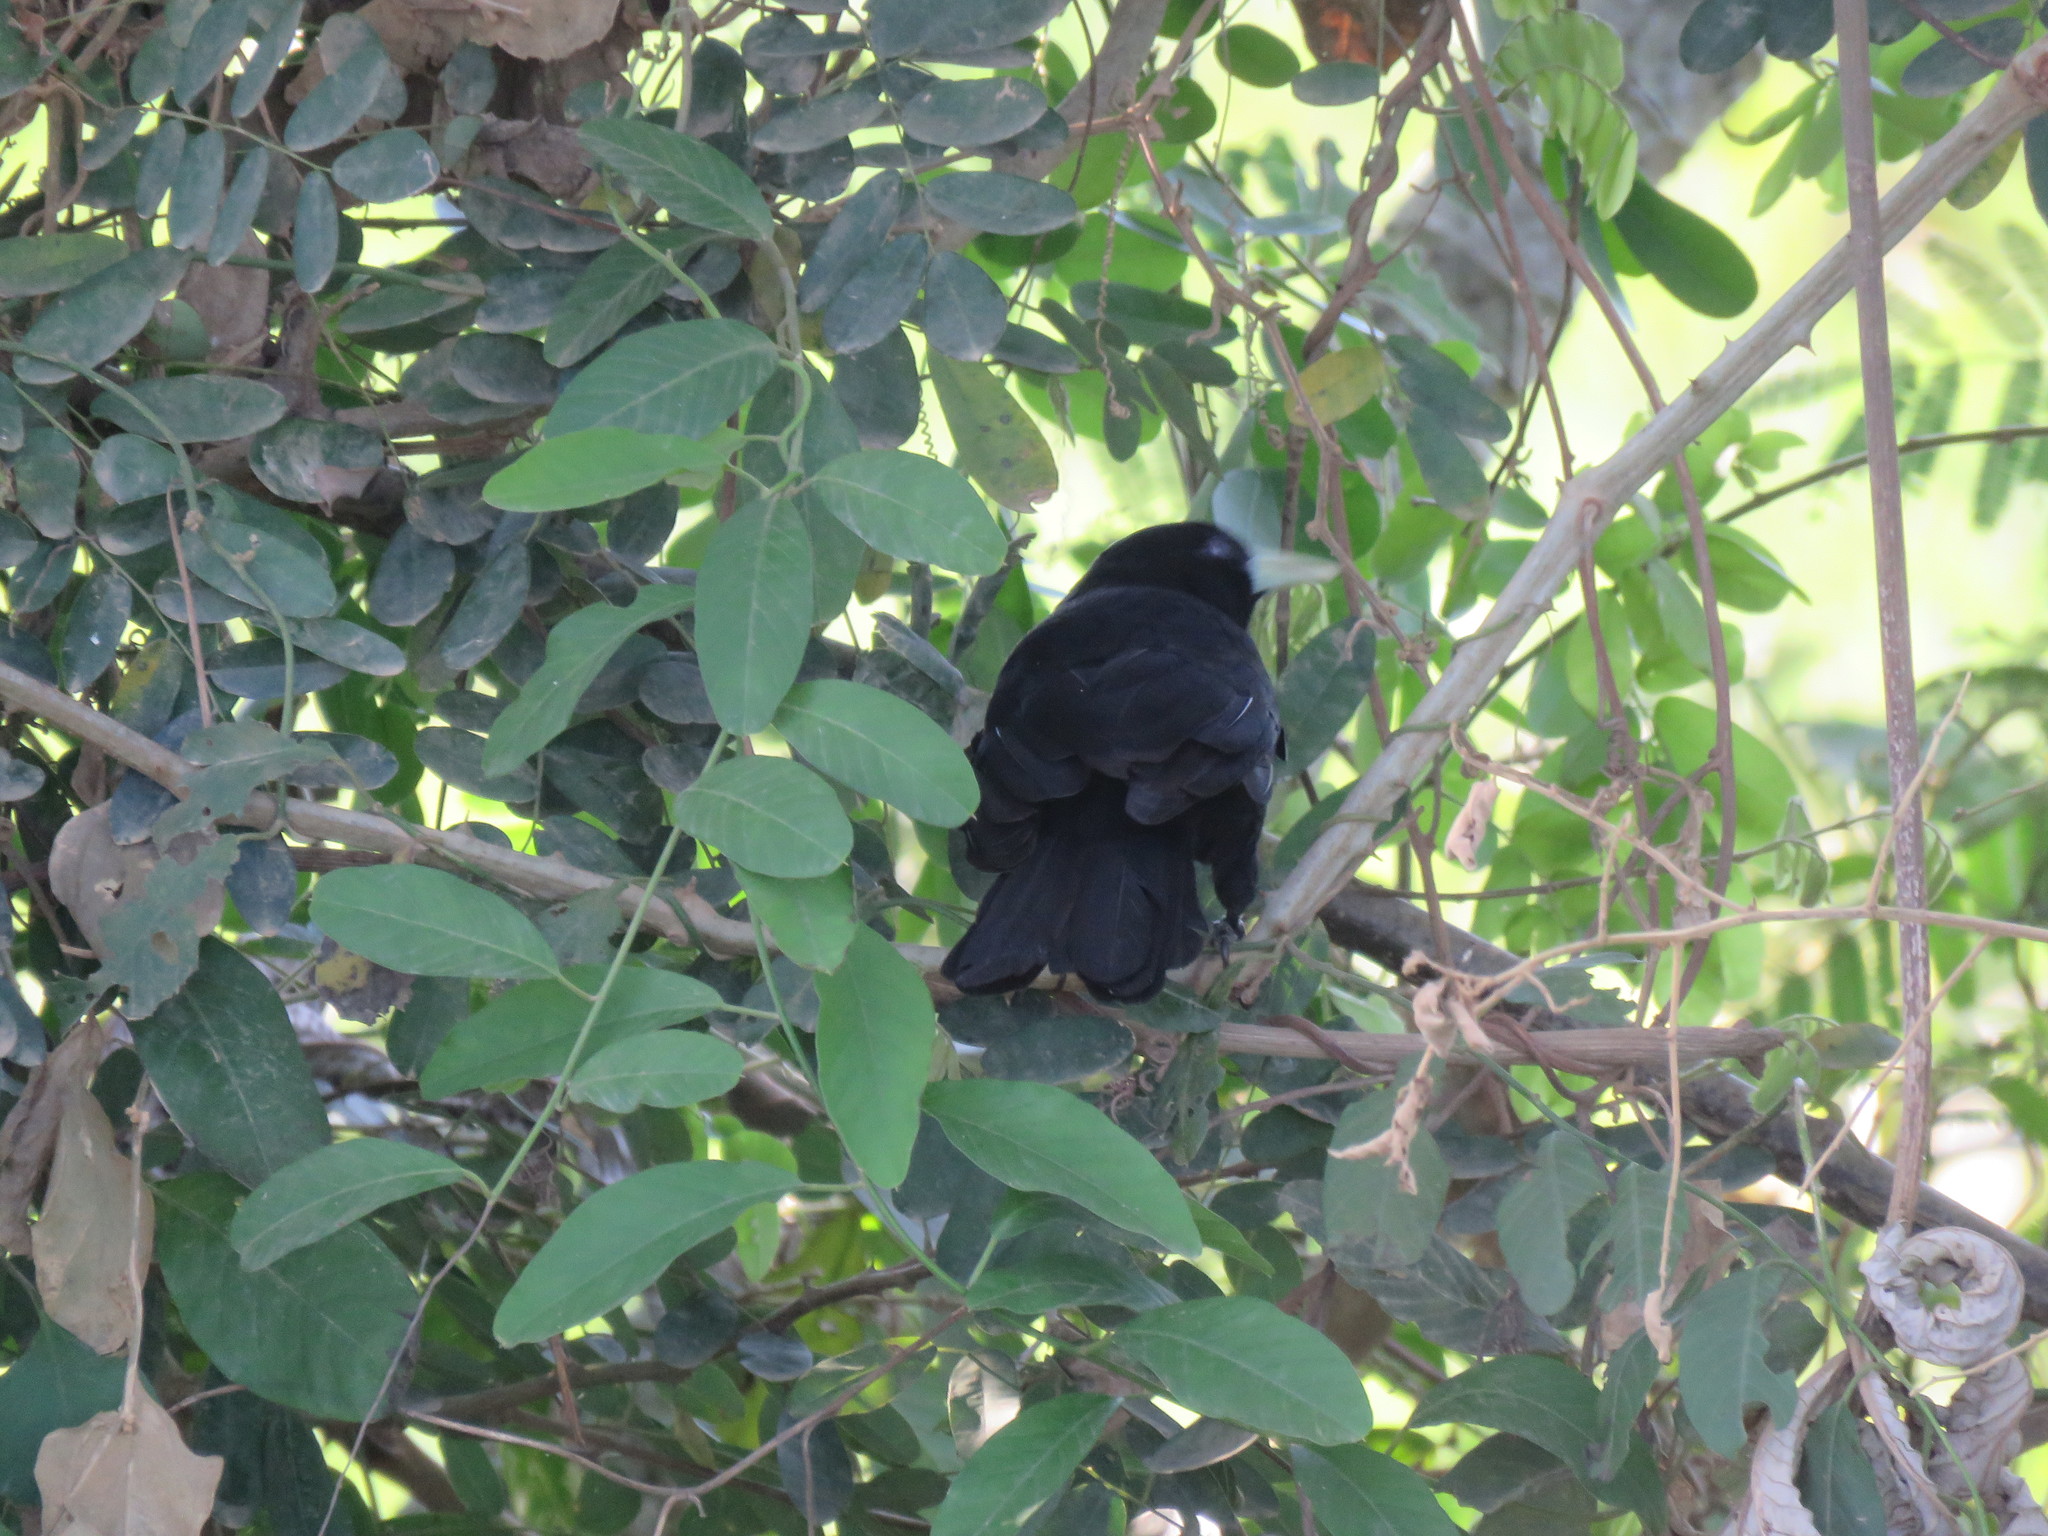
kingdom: Animalia
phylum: Chordata
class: Aves
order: Passeriformes
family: Icteridae
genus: Cacicus
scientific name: Cacicus solitarius
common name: Solitary cacique
